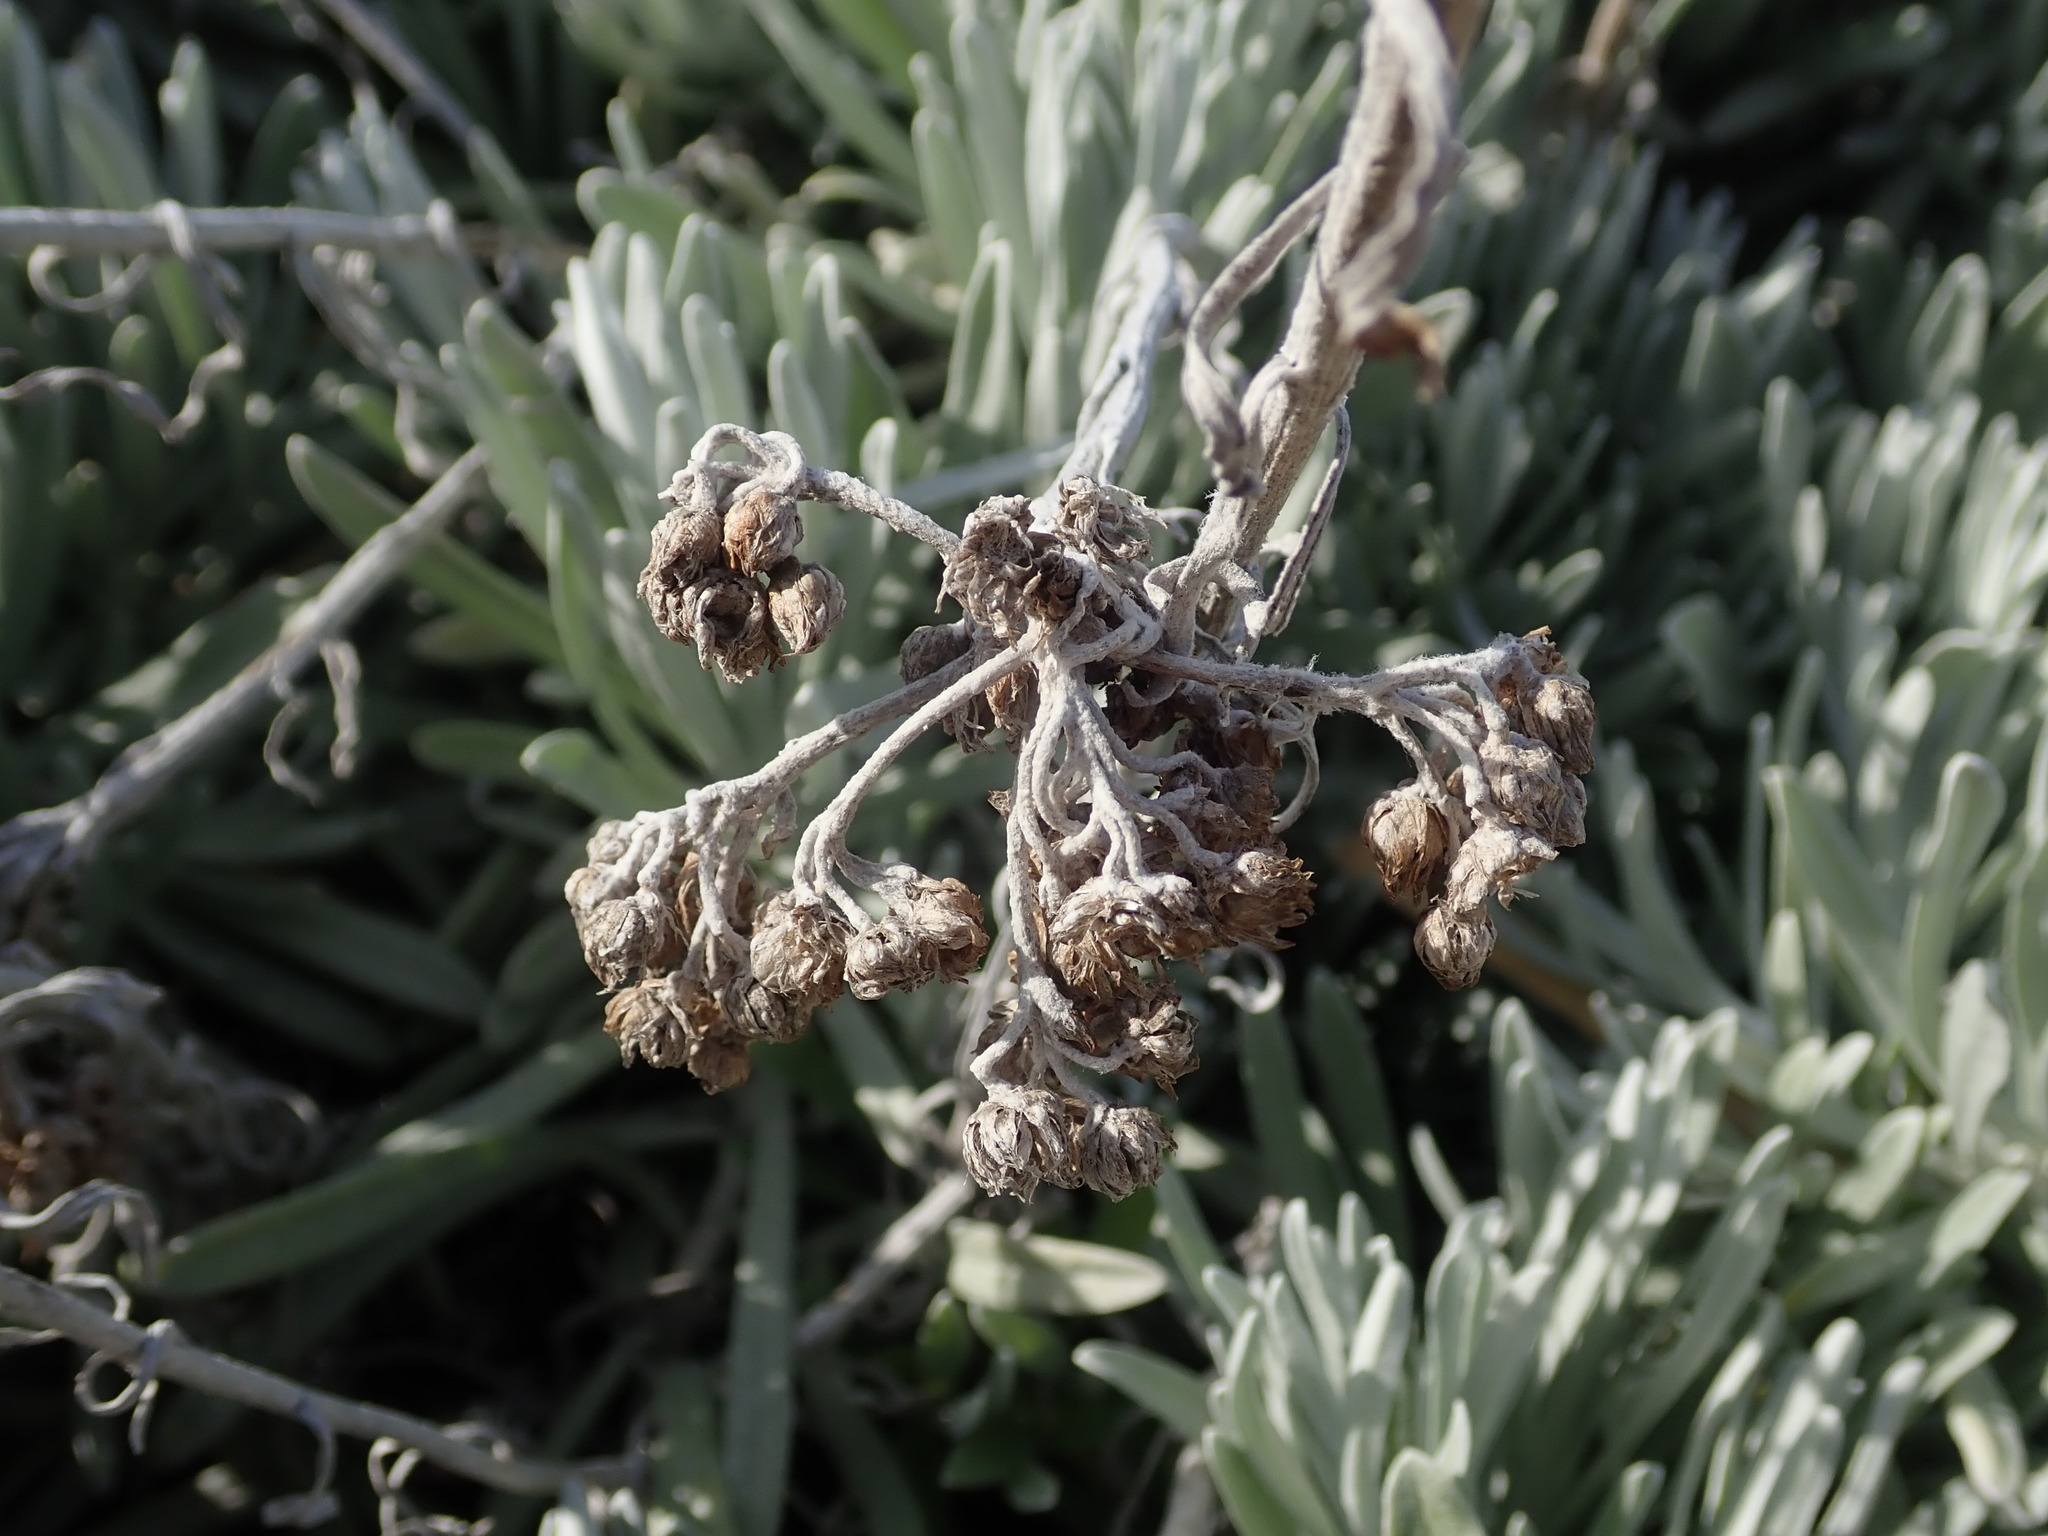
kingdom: Plantae
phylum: Tracheophyta
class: Magnoliopsida
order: Asterales
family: Asteraceae
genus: Helichrysum
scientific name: Helichrysum melitense
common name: Maltese everlasting
